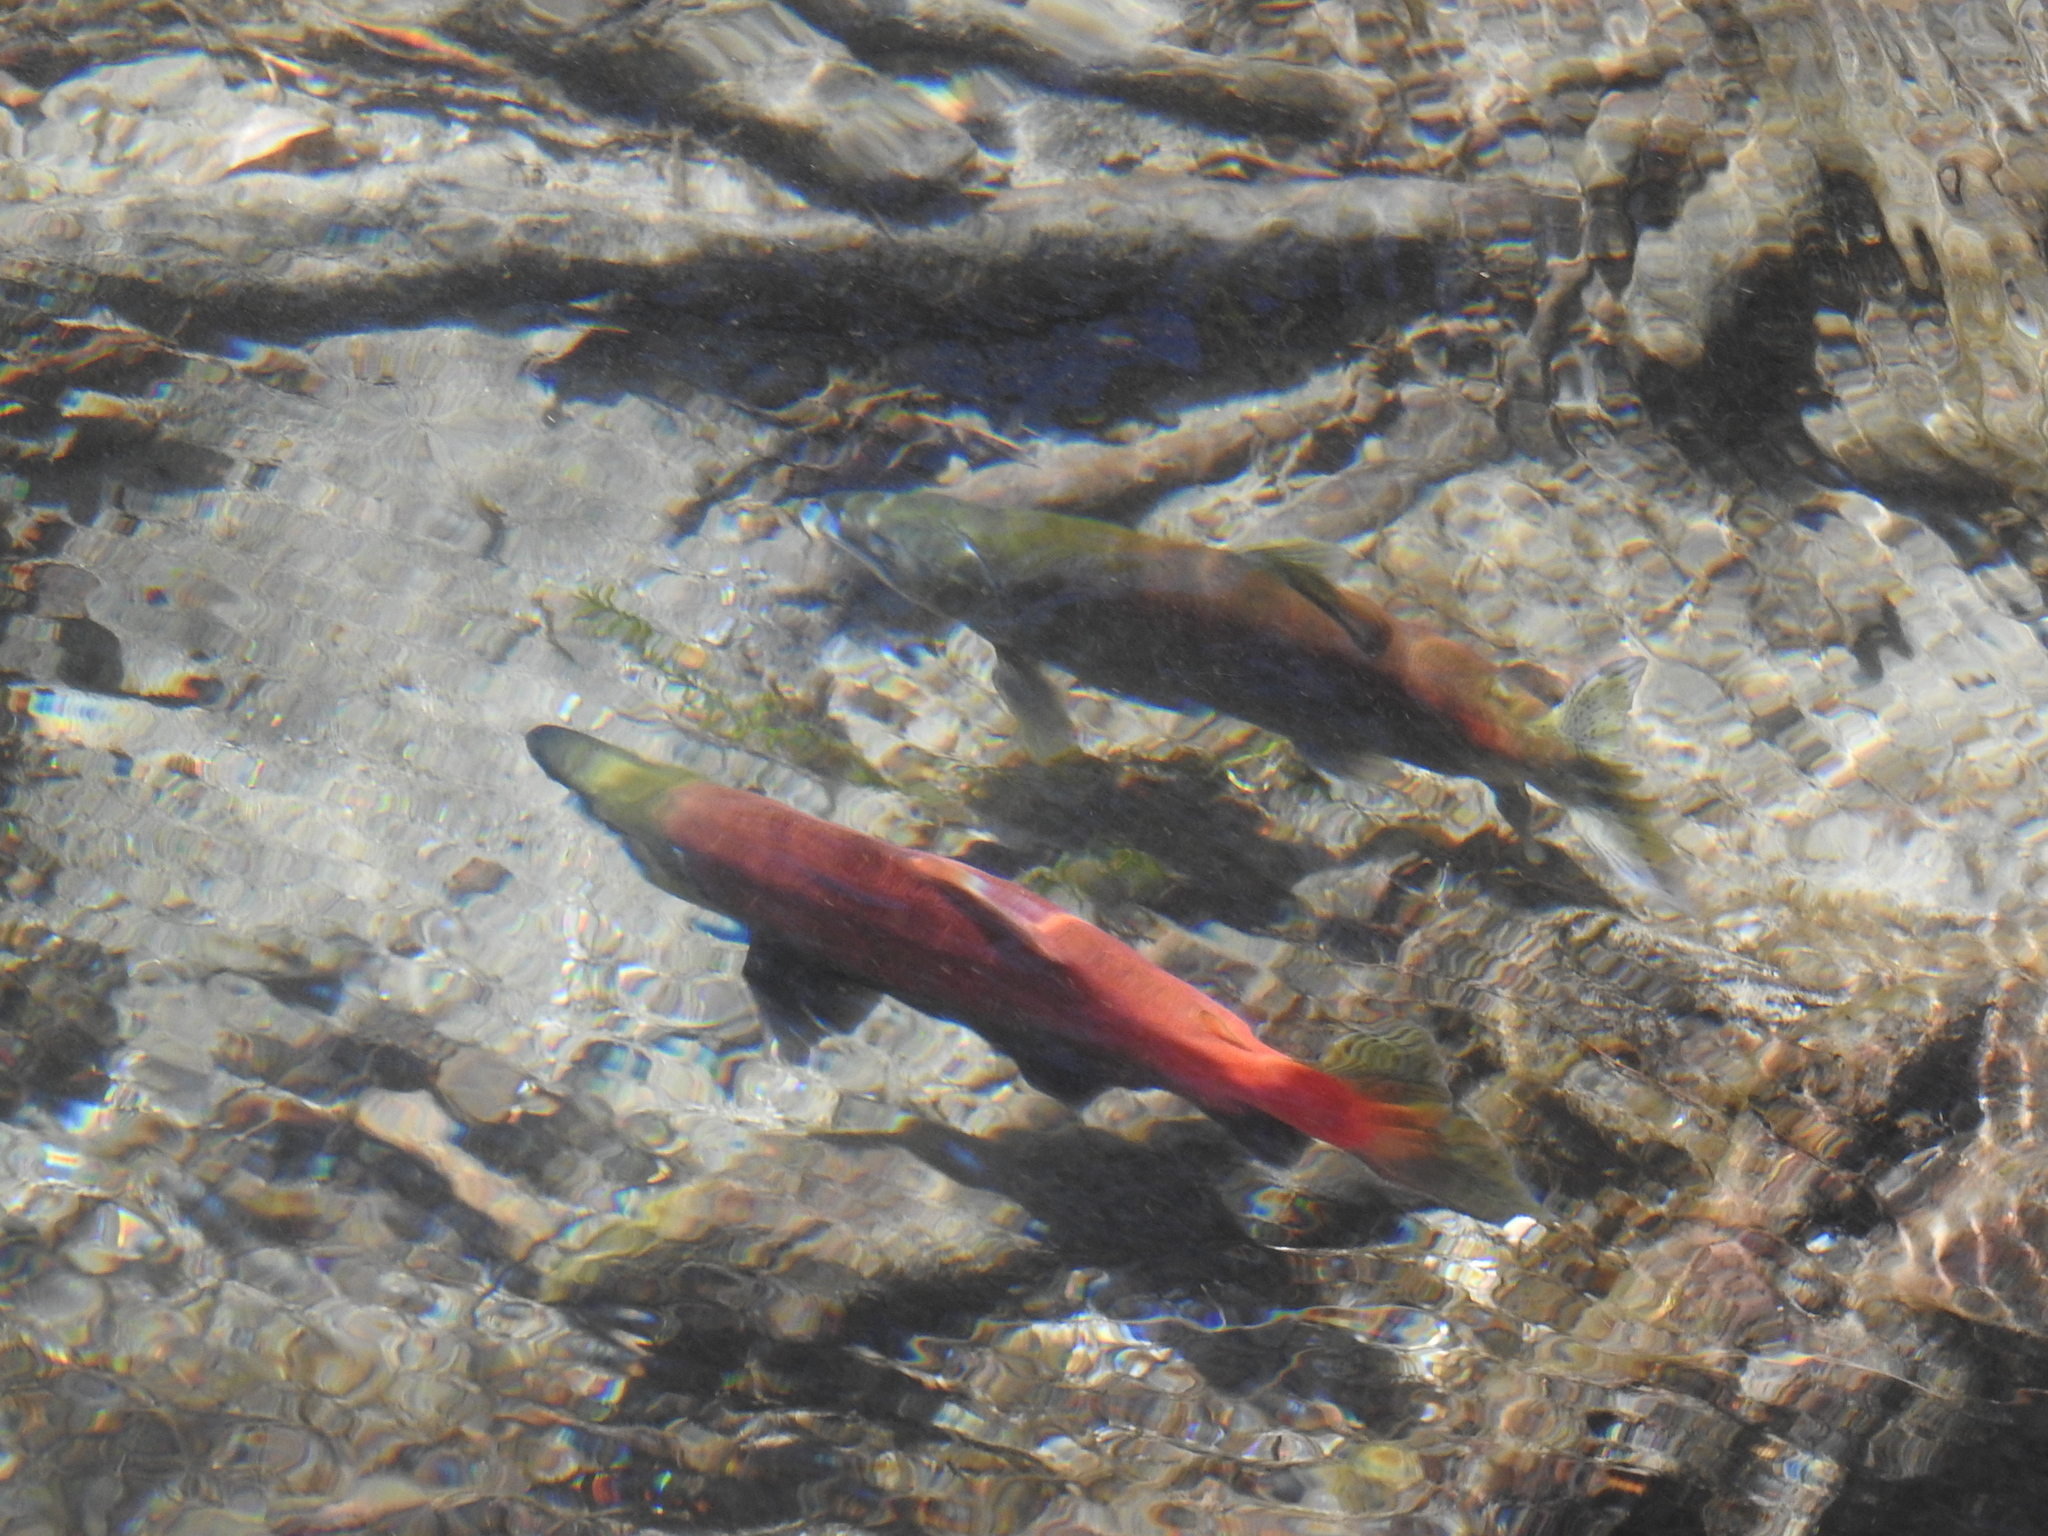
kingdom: Animalia
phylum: Chordata
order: Salmoniformes
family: Salmonidae
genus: Oncorhynchus
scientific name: Oncorhynchus nerka
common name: Sockeye salmon
